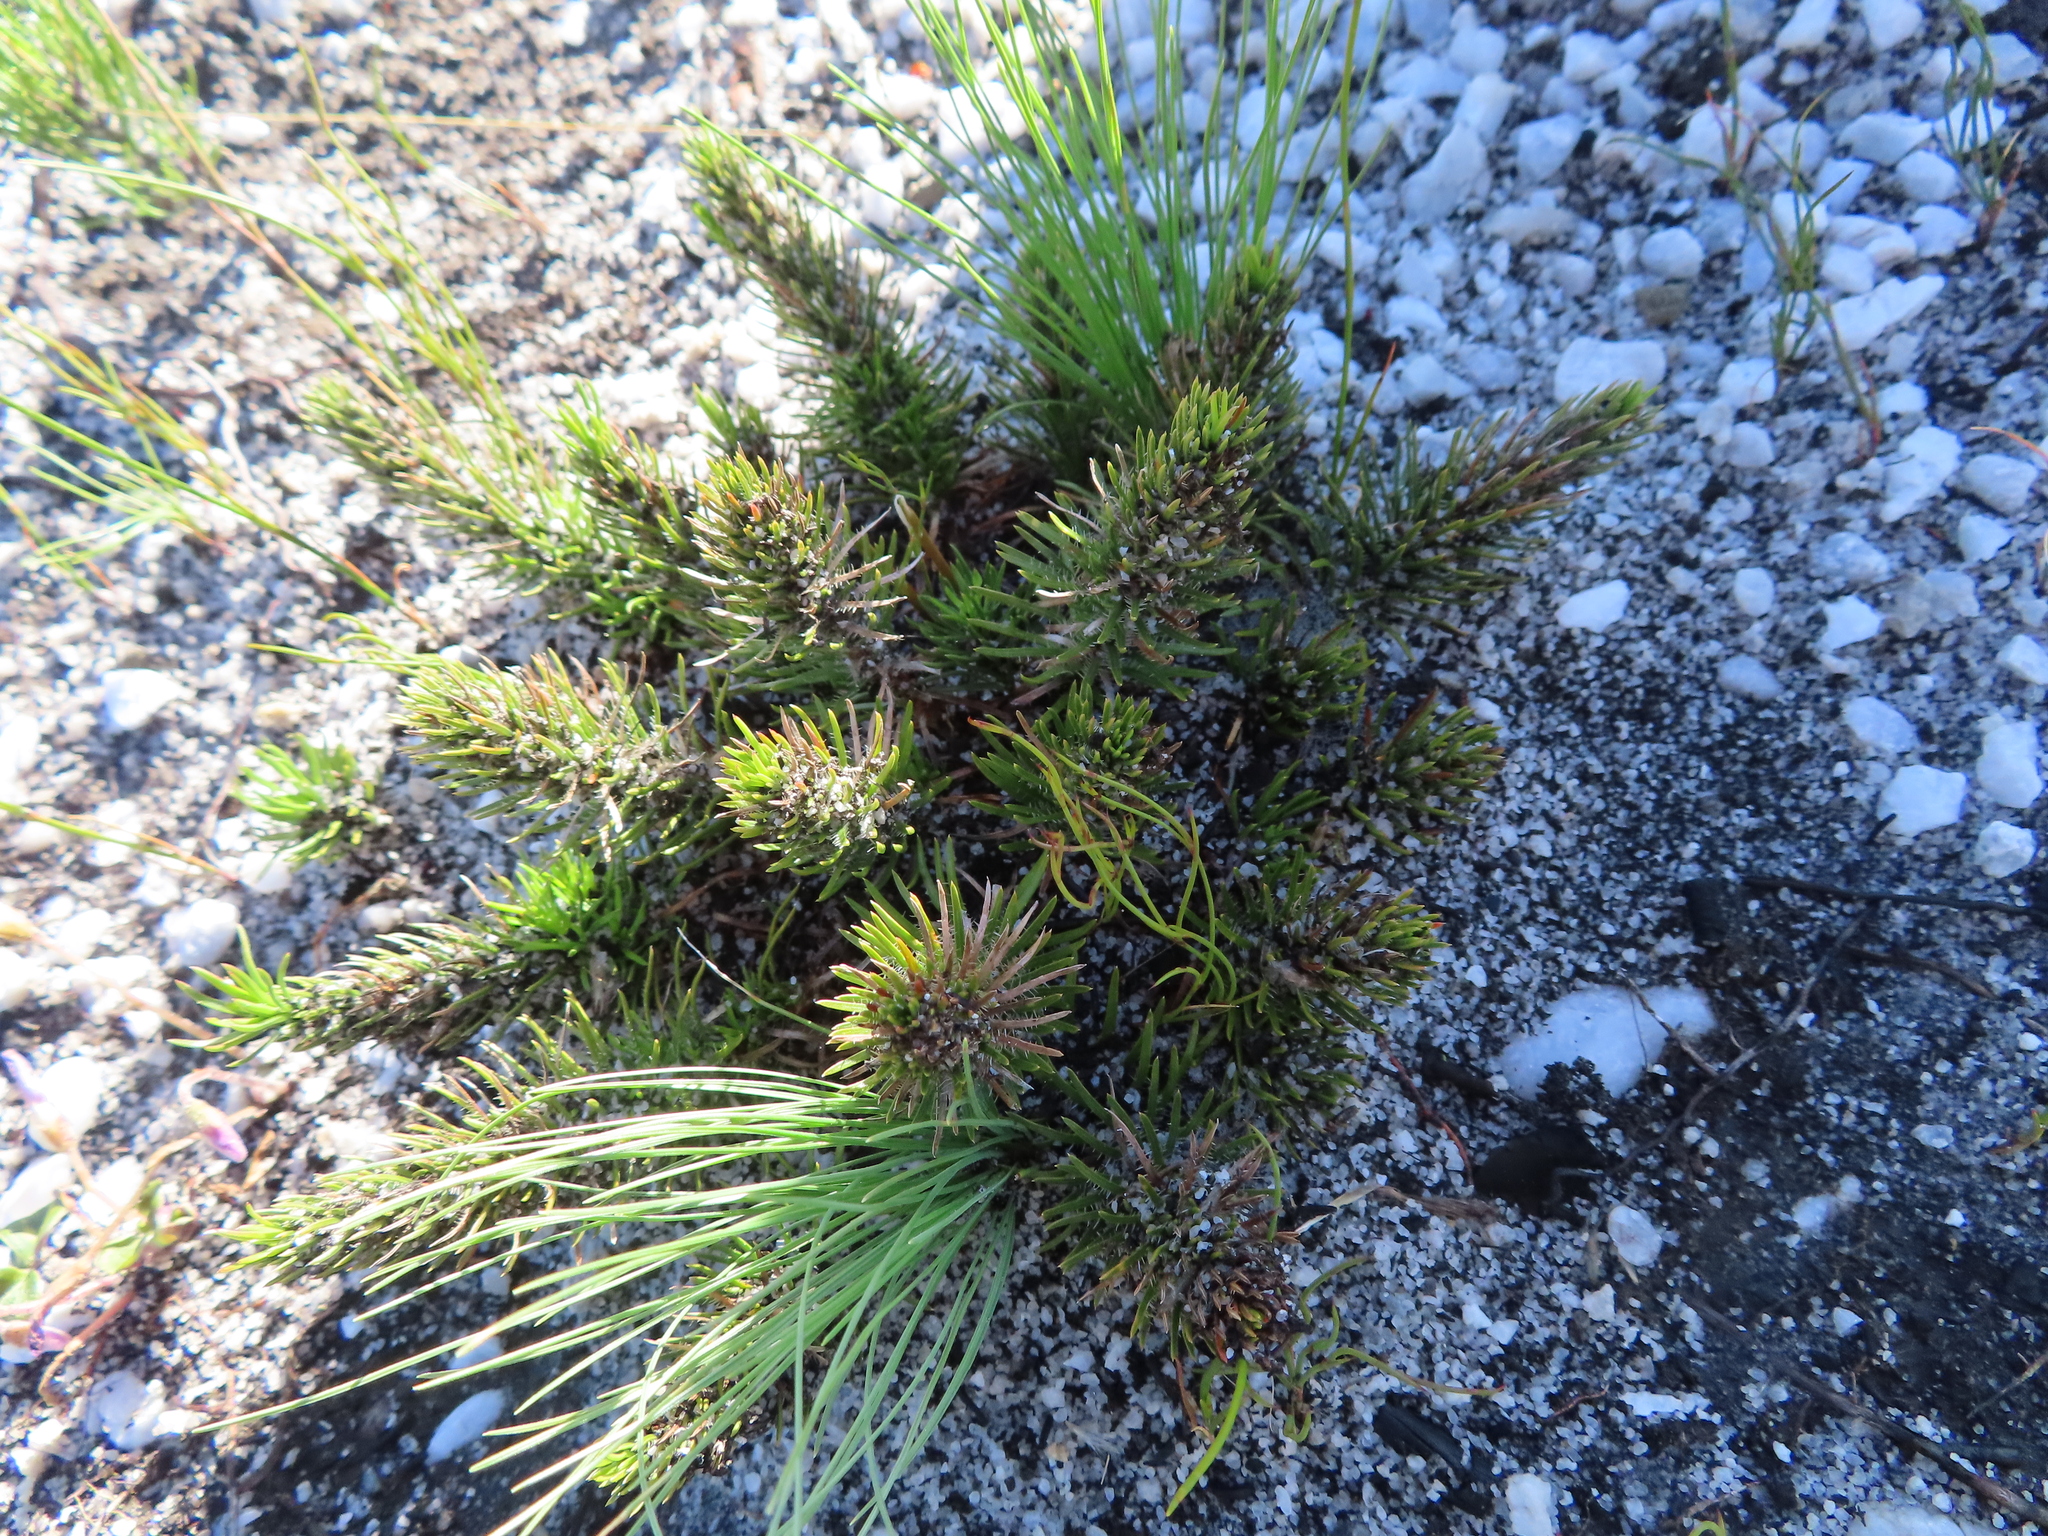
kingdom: Plantae
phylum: Tracheophyta
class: Magnoliopsida
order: Asterales
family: Campanulaceae
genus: Merciera
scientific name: Merciera azurea
